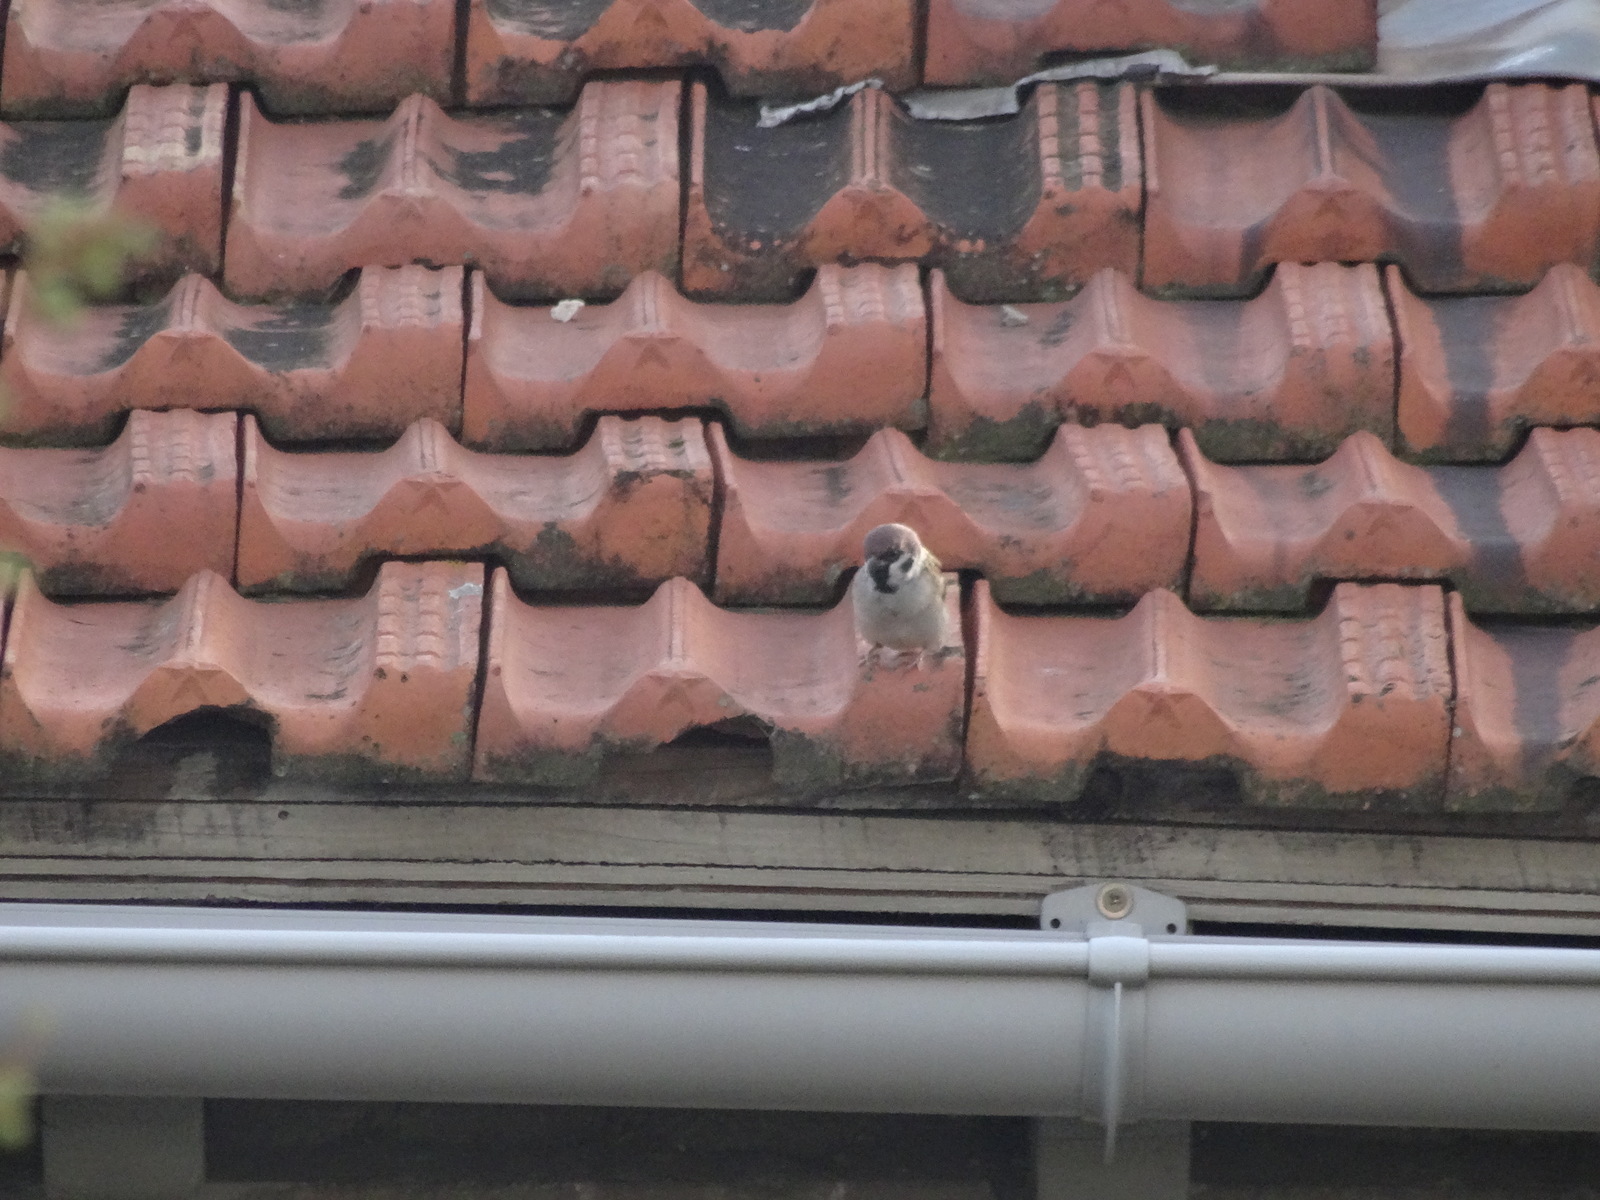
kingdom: Animalia
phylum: Chordata
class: Aves
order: Passeriformes
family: Passeridae
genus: Passer
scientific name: Passer montanus
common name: Eurasian tree sparrow
